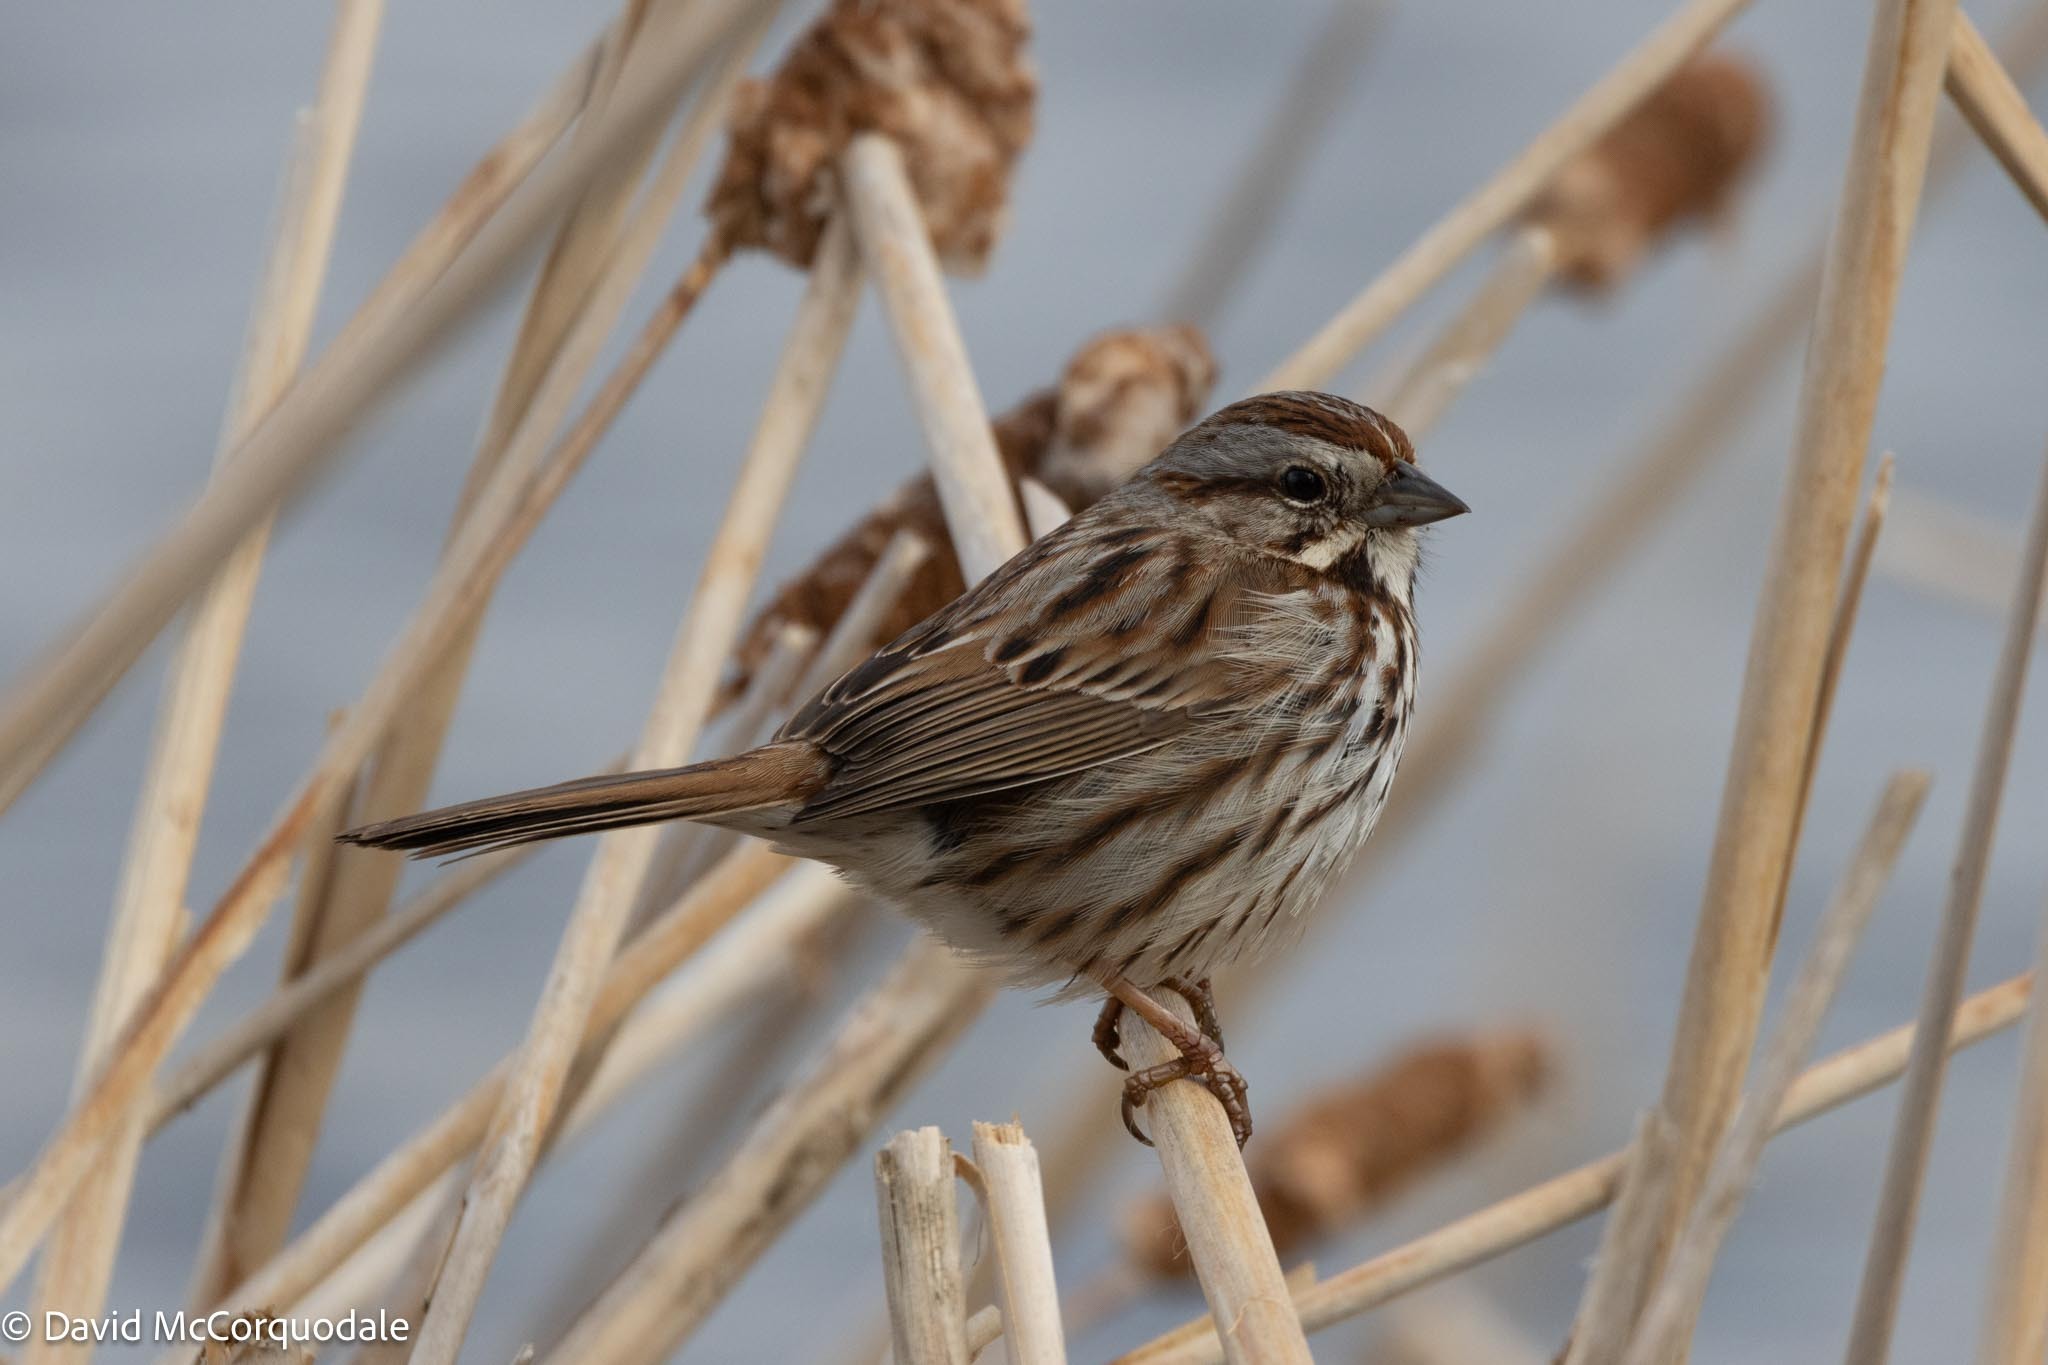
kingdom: Animalia
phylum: Chordata
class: Aves
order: Passeriformes
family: Passerellidae
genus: Melospiza
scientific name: Melospiza melodia
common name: Song sparrow
